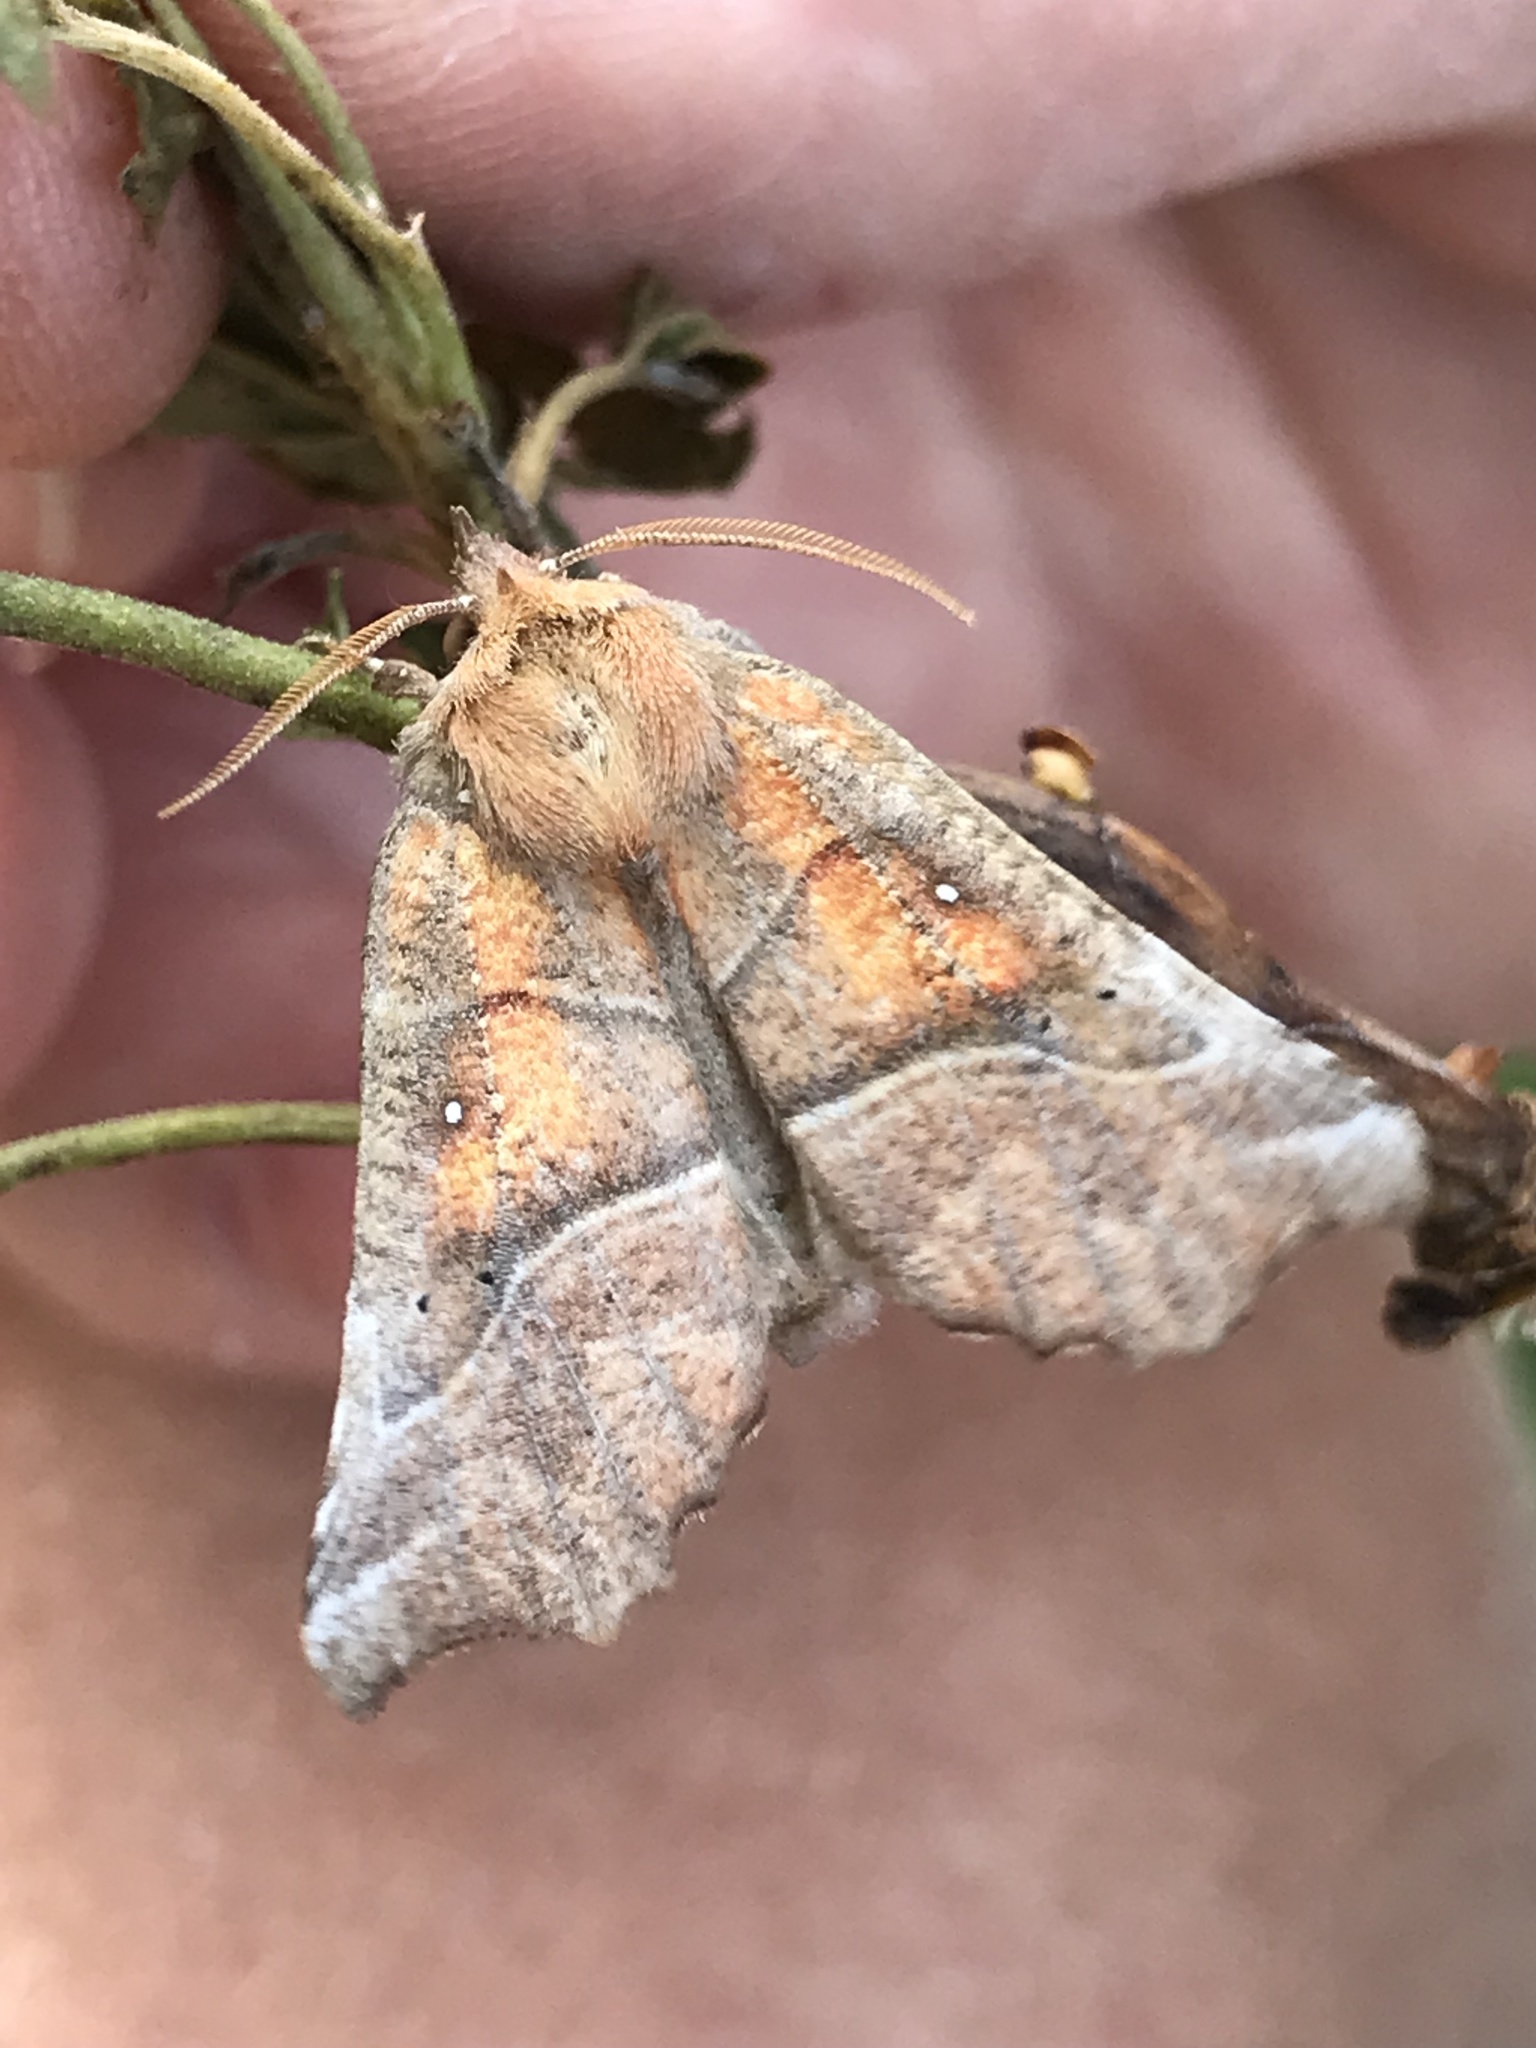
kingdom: Animalia
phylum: Arthropoda
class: Insecta
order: Lepidoptera
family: Erebidae
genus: Scoliopteryx
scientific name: Scoliopteryx libatrix
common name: Herald
